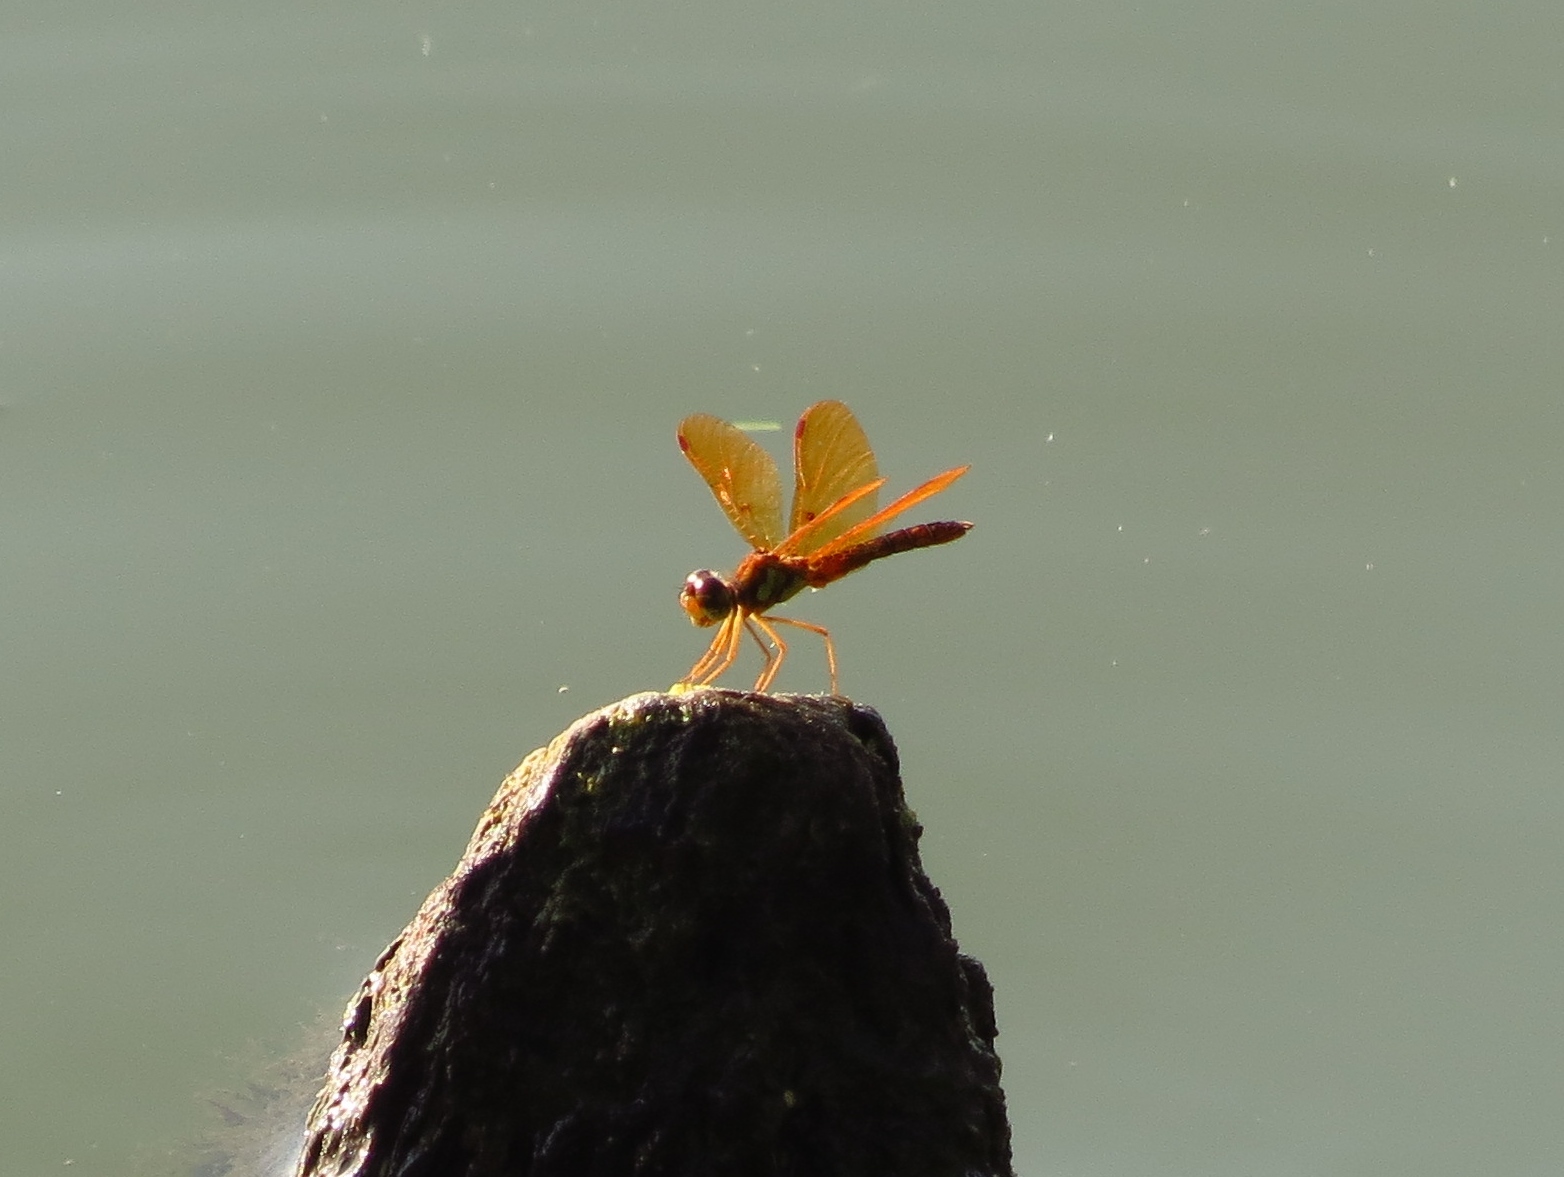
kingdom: Animalia
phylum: Arthropoda
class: Insecta
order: Odonata
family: Libellulidae
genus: Perithemis
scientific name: Perithemis tenera
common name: Eastern amberwing
